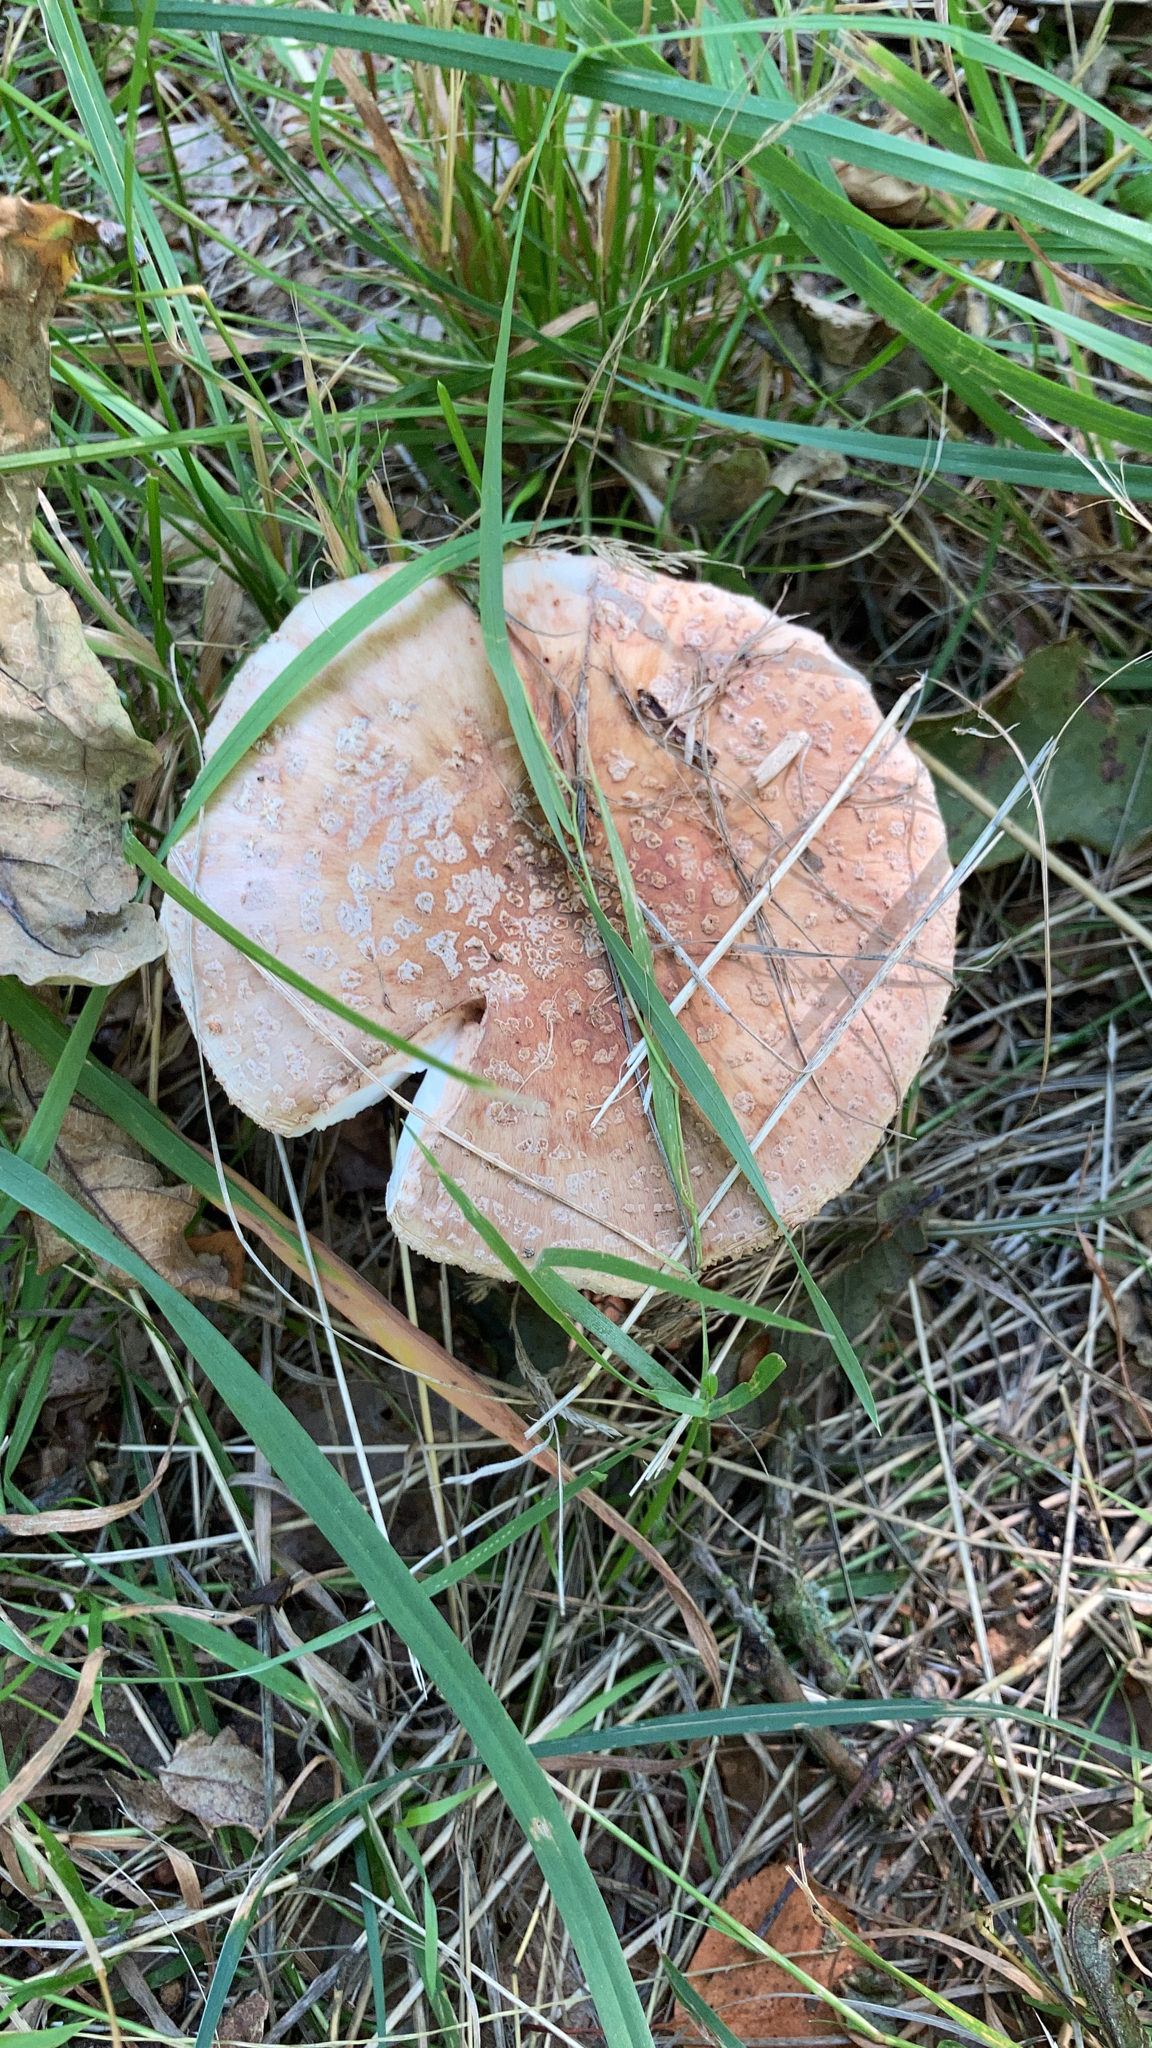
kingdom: Fungi
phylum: Basidiomycota
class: Agaricomycetes
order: Agaricales
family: Amanitaceae
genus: Amanita
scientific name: Amanita rubescens
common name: Blusher
